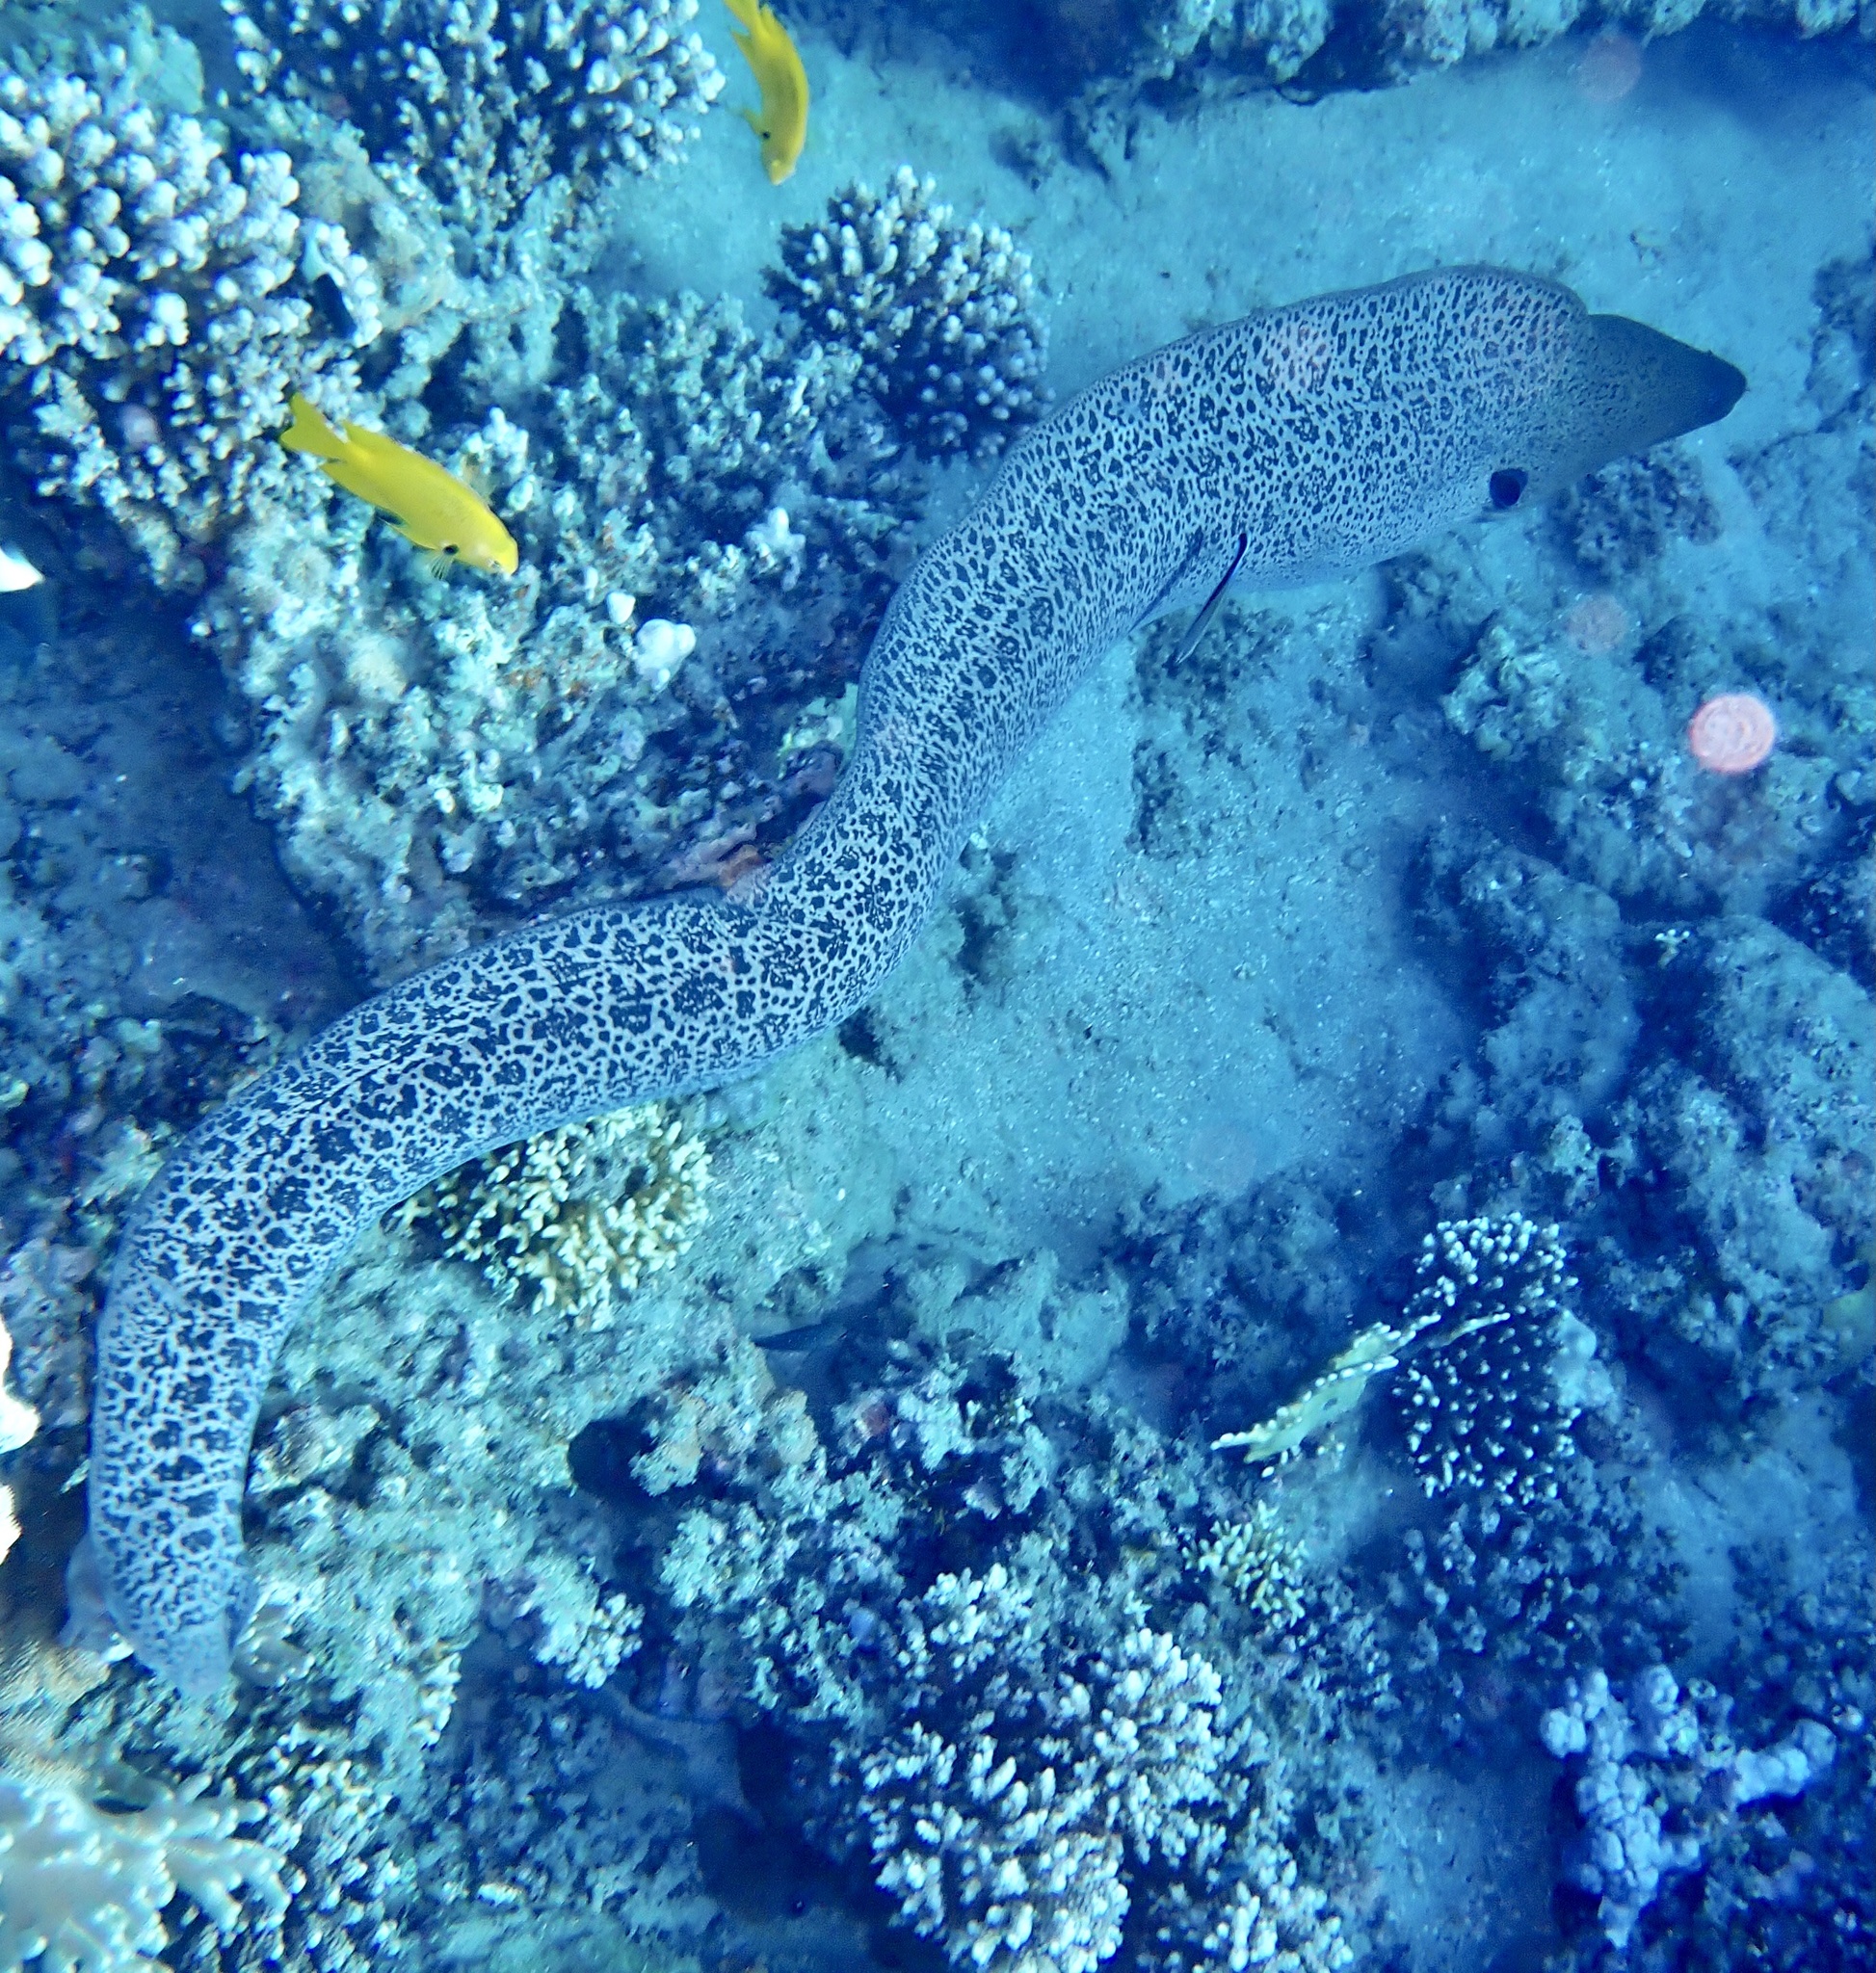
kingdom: Animalia
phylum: Chordata
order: Anguilliformes
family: Muraenidae
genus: Gymnothorax
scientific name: Gymnothorax javanicus
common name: Giant moray
